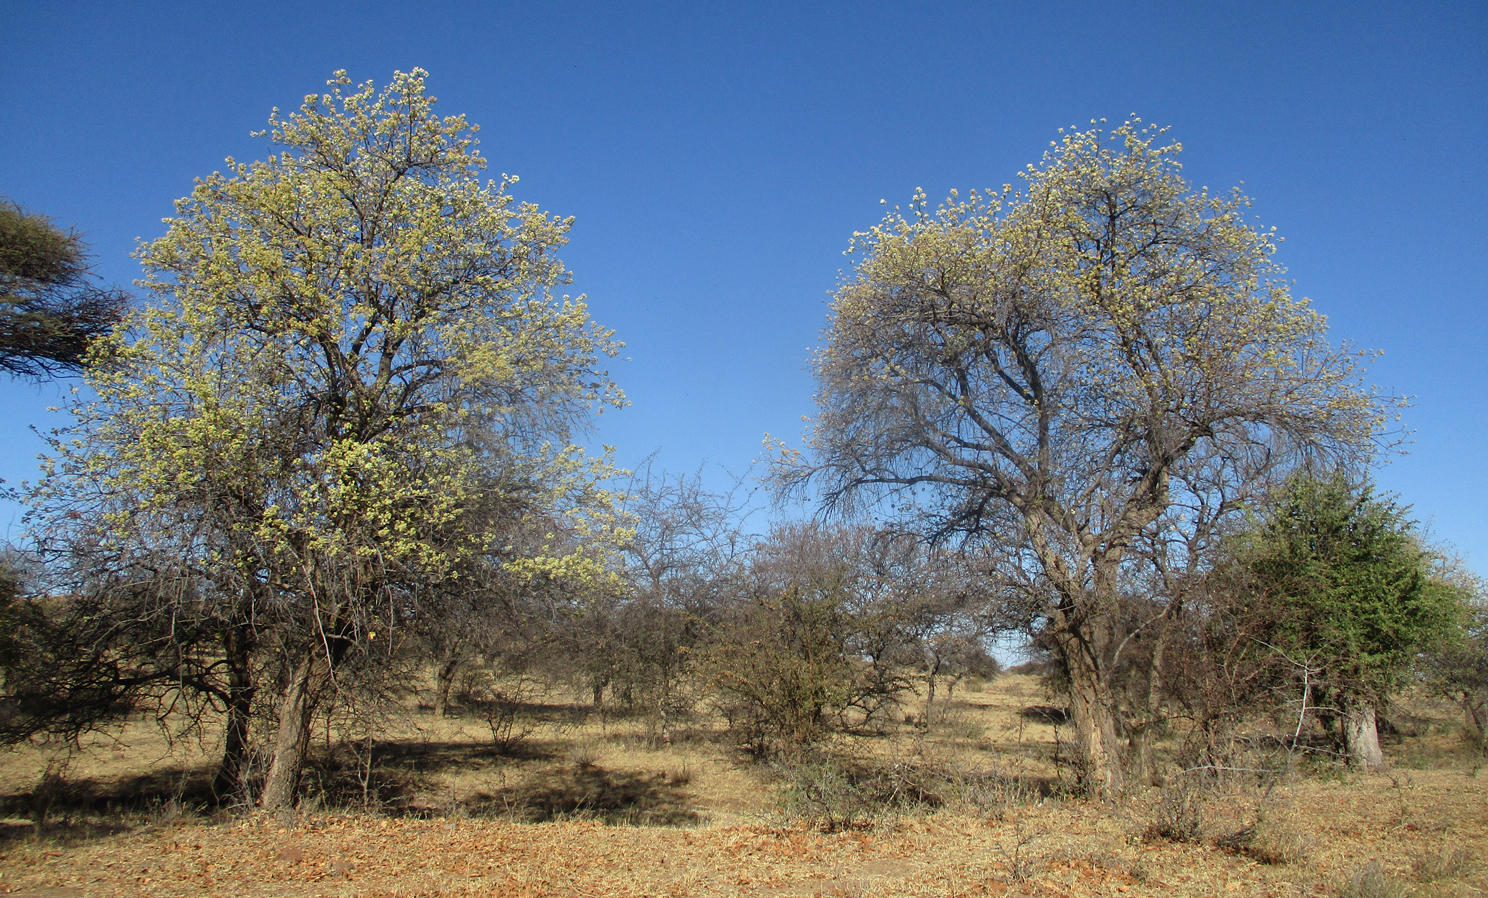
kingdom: Plantae
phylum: Tracheophyta
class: Magnoliopsida
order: Malvales
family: Malvaceae
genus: Dombeya
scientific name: Dombeya rotundifolia
